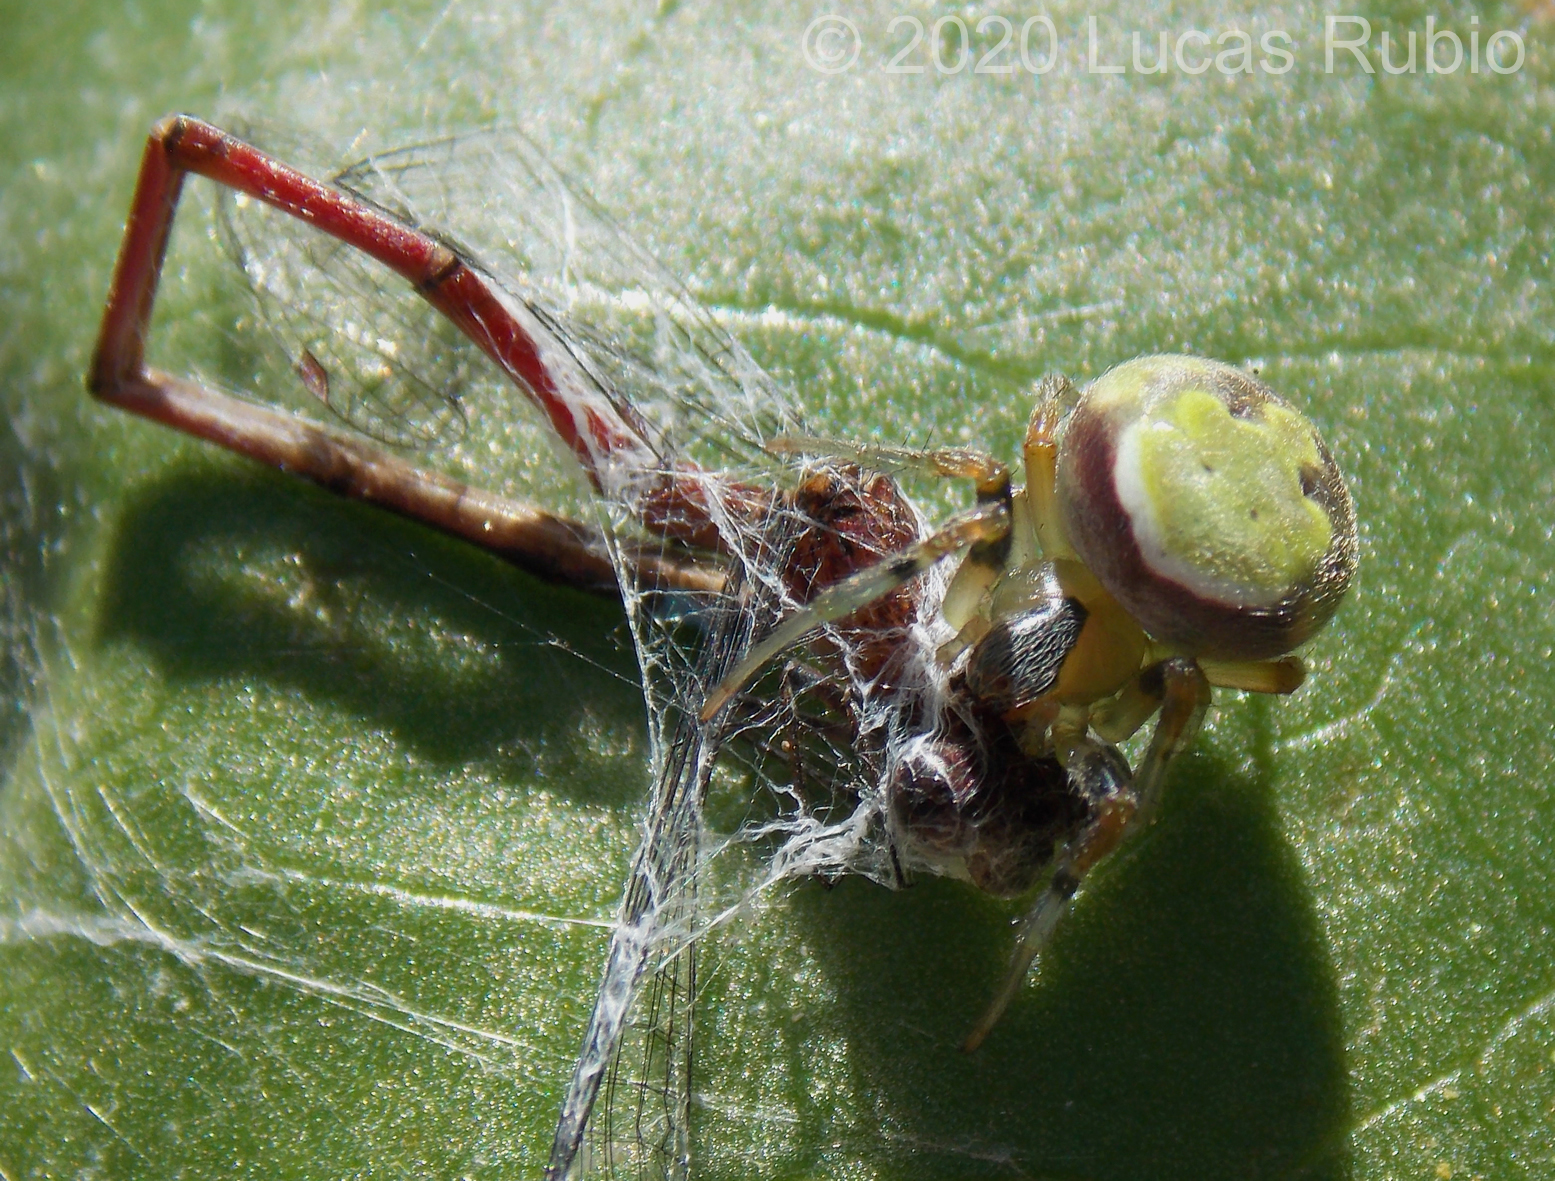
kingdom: Animalia
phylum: Arthropoda
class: Insecta
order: Odonata
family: Coenagrionidae
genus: Oxyagrion
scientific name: Oxyagrion terminale
